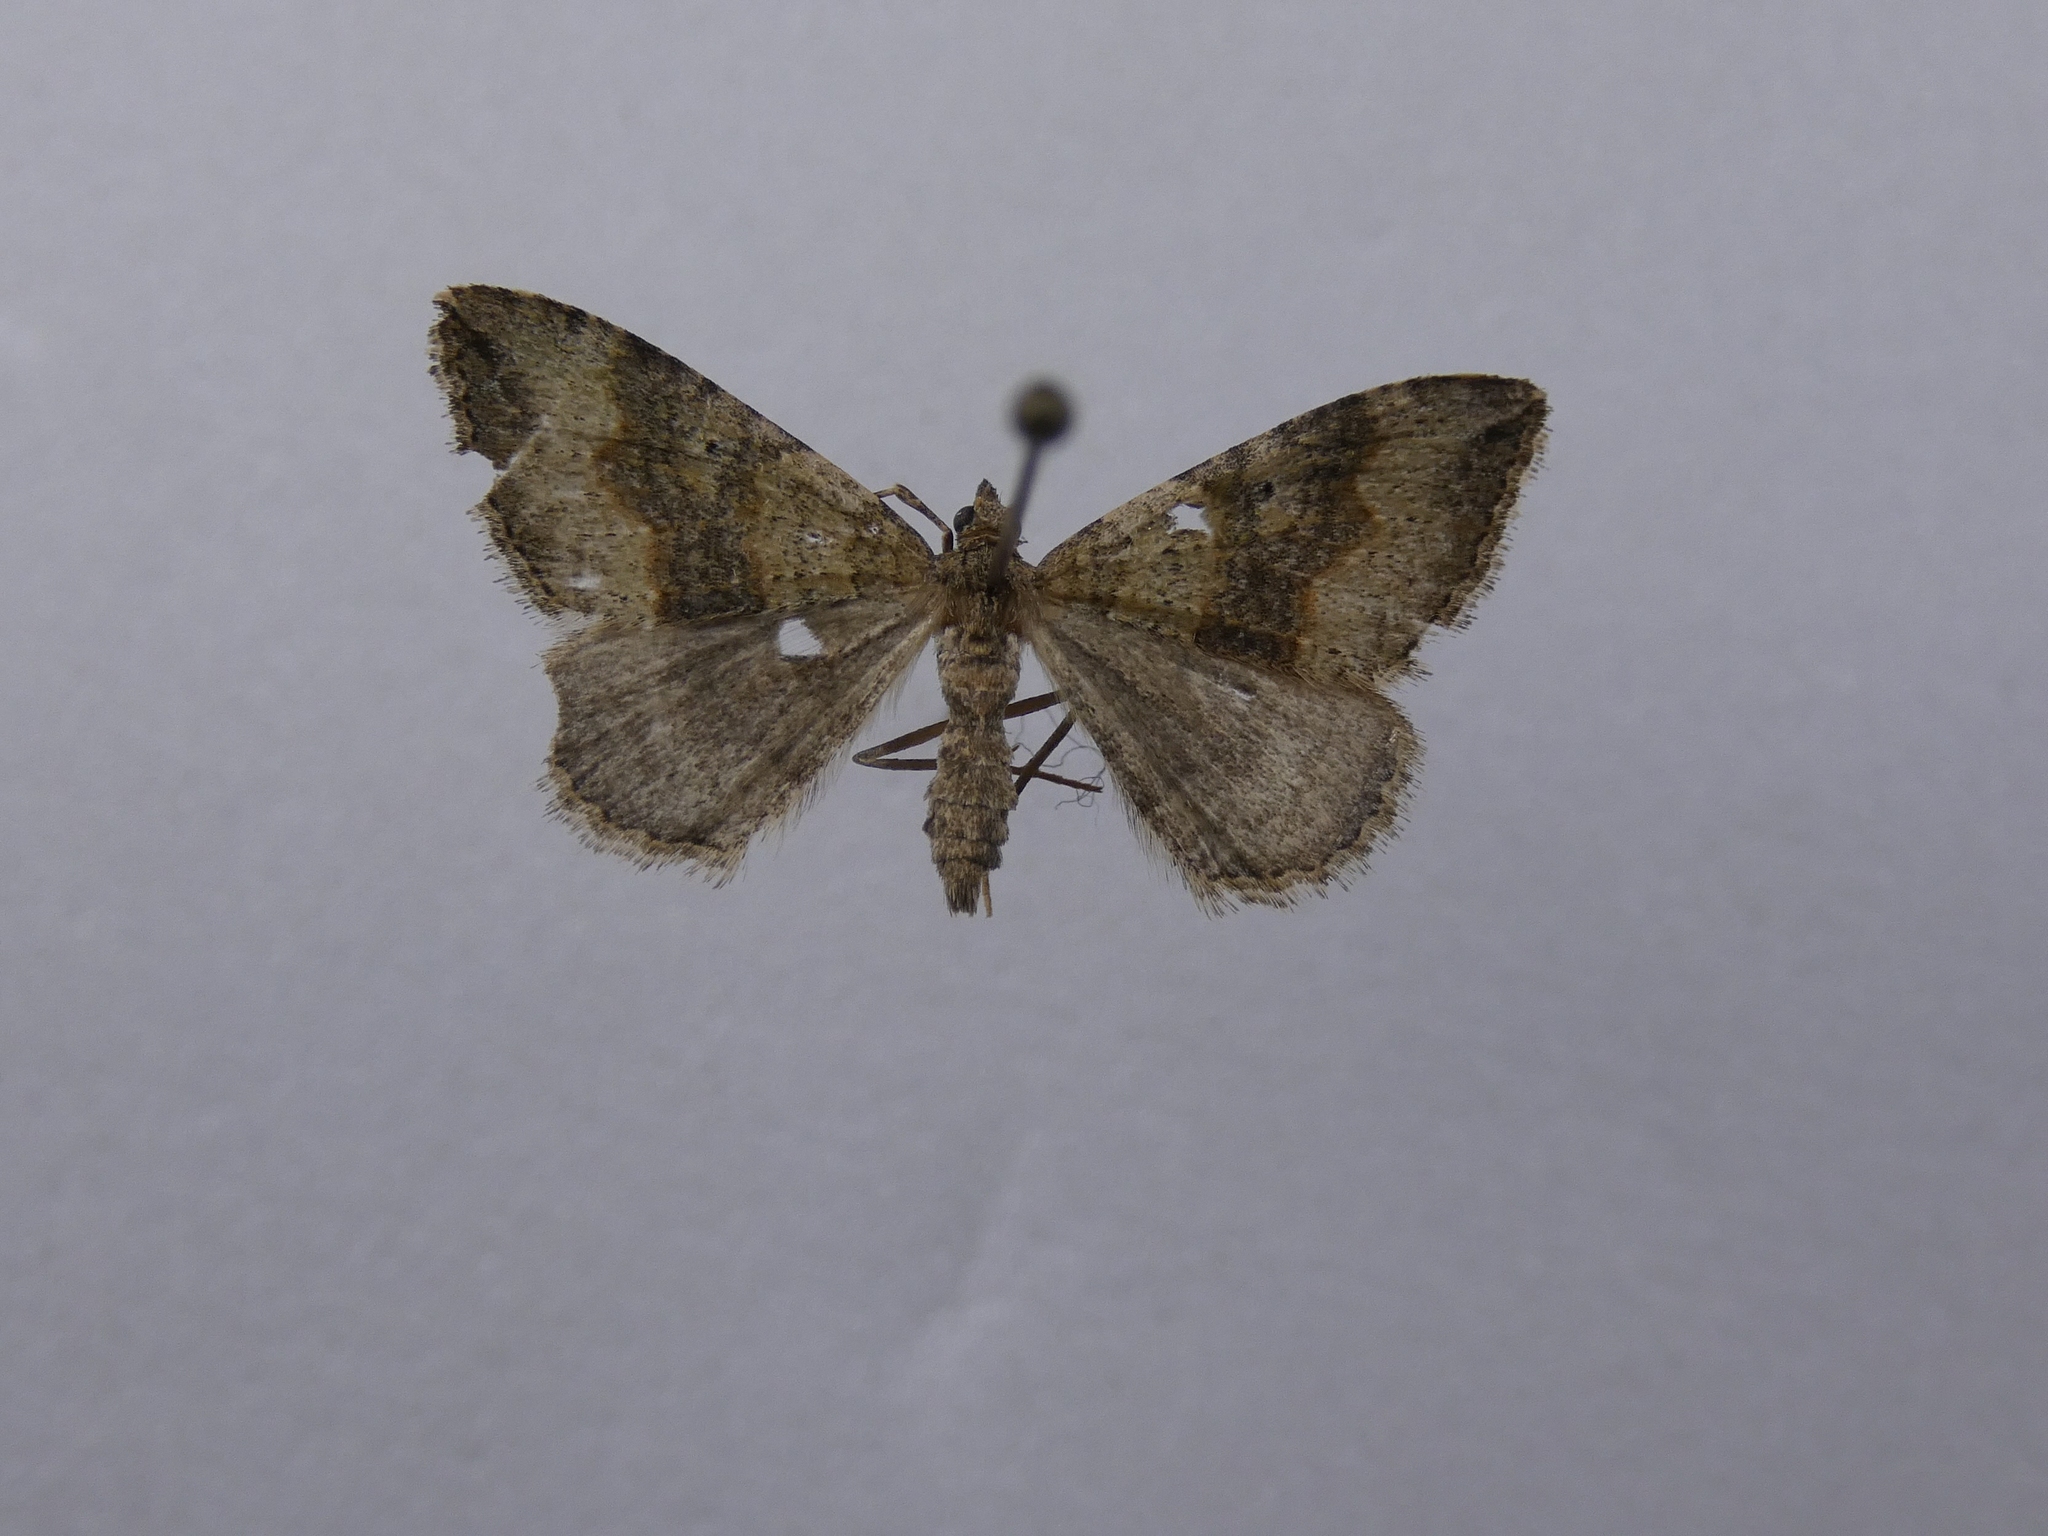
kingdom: Animalia
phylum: Arthropoda
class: Insecta
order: Lepidoptera
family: Geometridae
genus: Epyaxa
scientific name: Epyaxa rosearia
